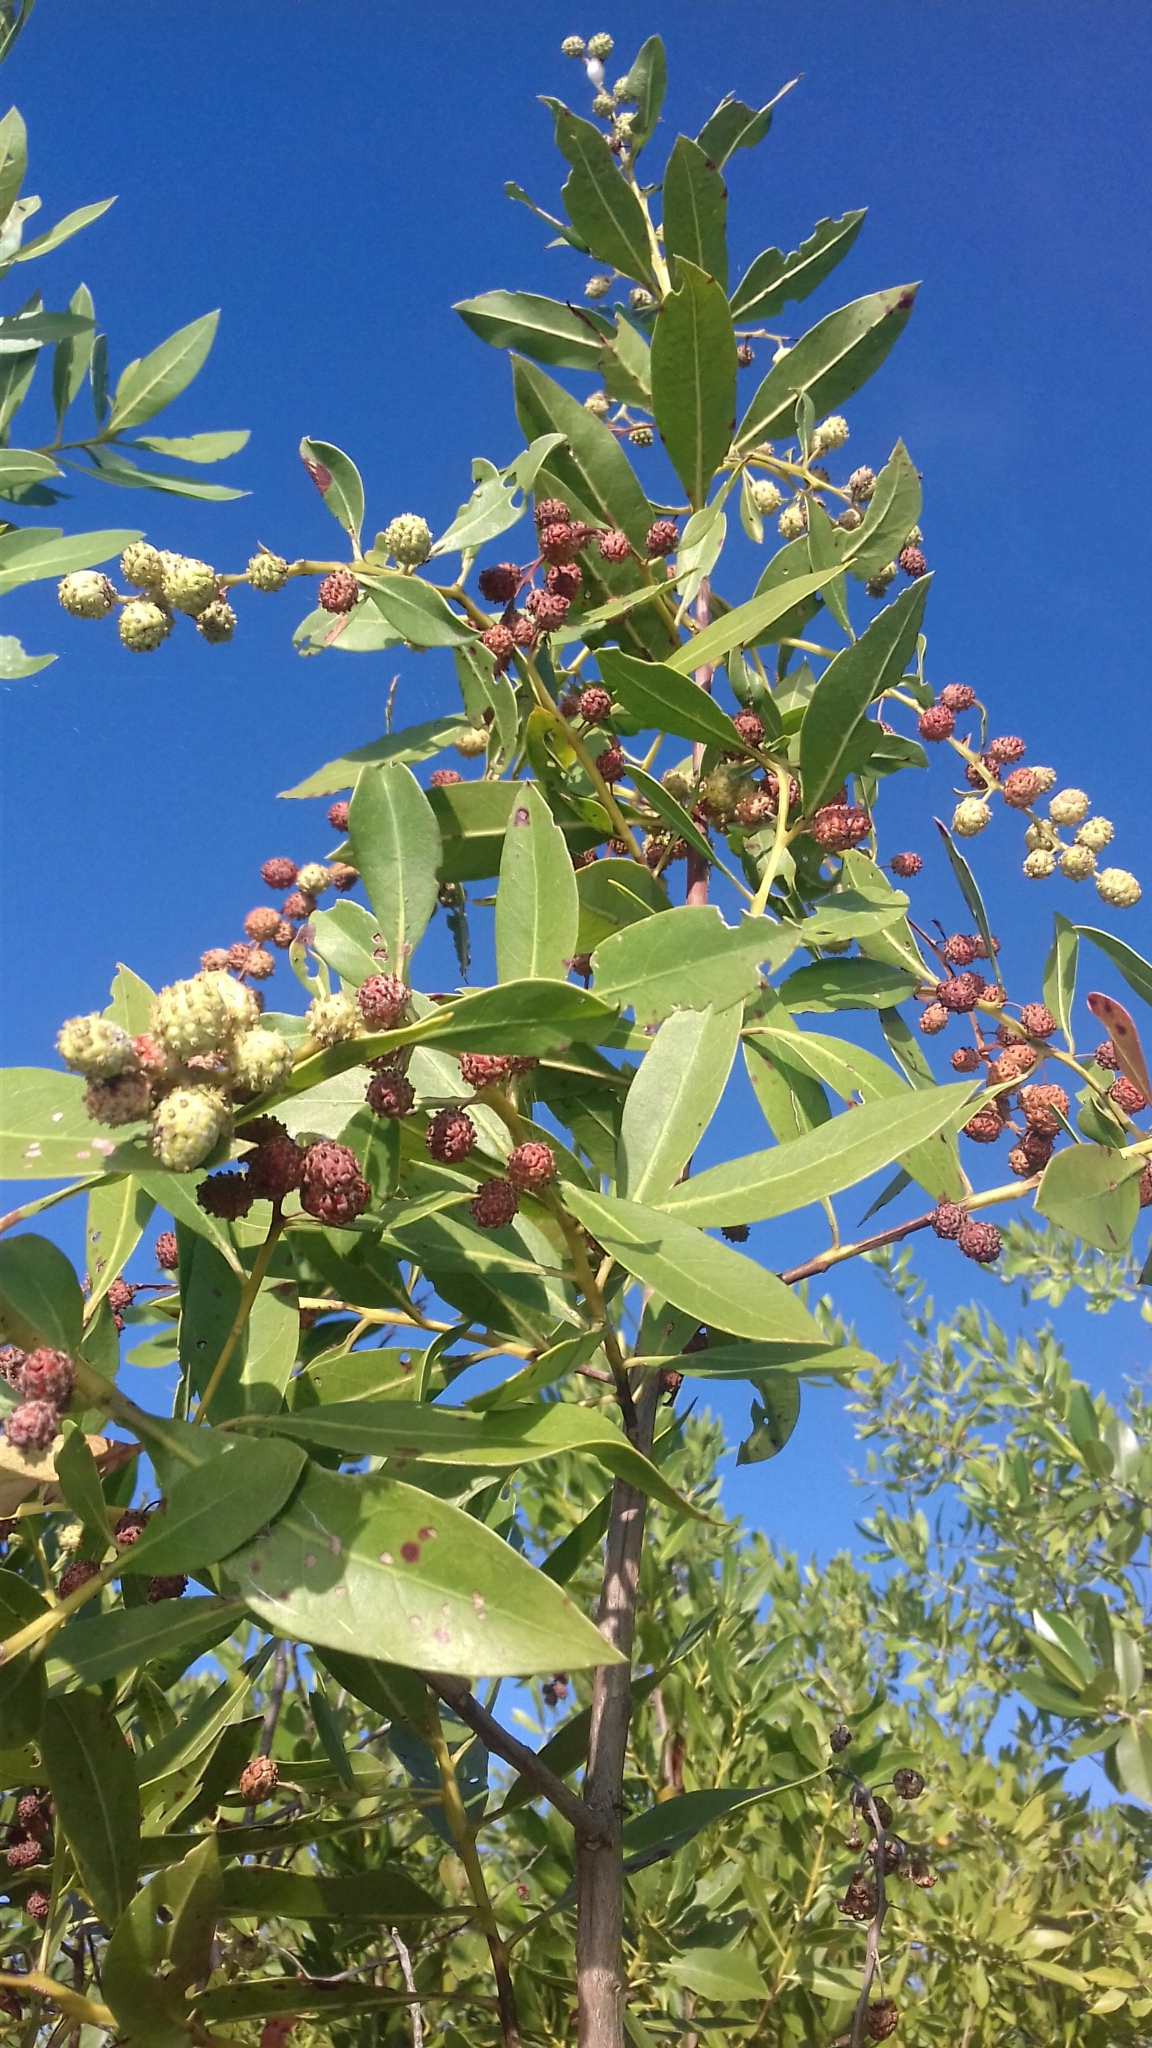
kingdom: Plantae
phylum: Tracheophyta
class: Magnoliopsida
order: Myrtales
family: Combretaceae
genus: Conocarpus
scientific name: Conocarpus erectus
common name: Button mangrove
